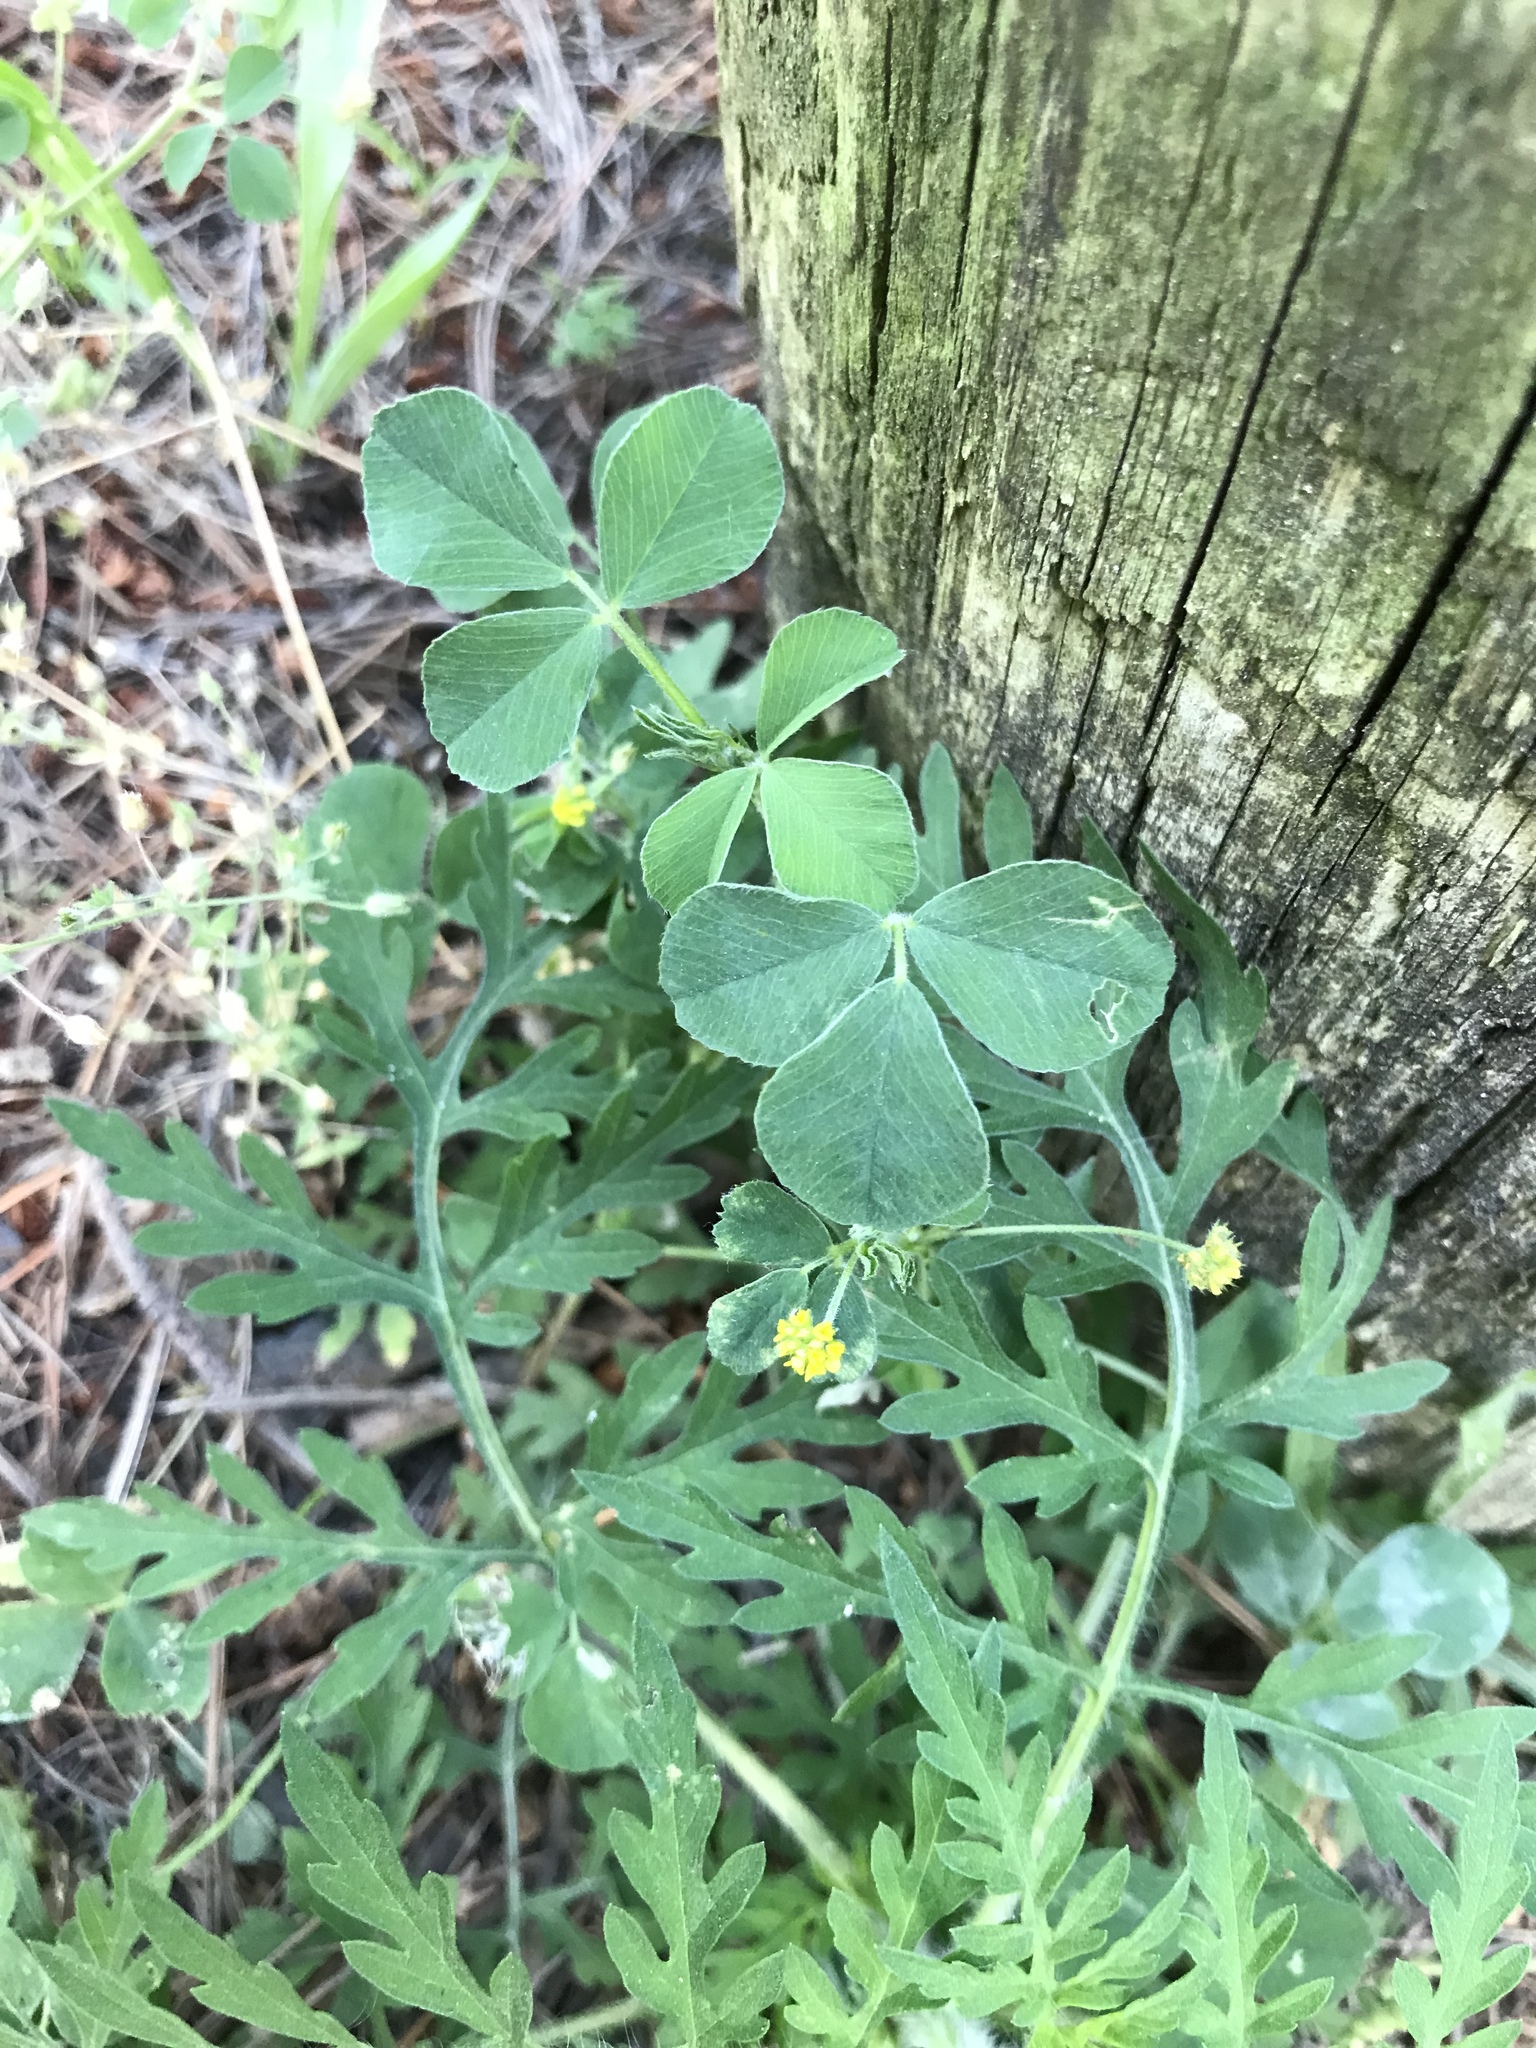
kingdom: Plantae
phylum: Tracheophyta
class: Magnoliopsida
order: Fabales
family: Fabaceae
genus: Medicago
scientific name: Medicago lupulina
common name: Black medick
